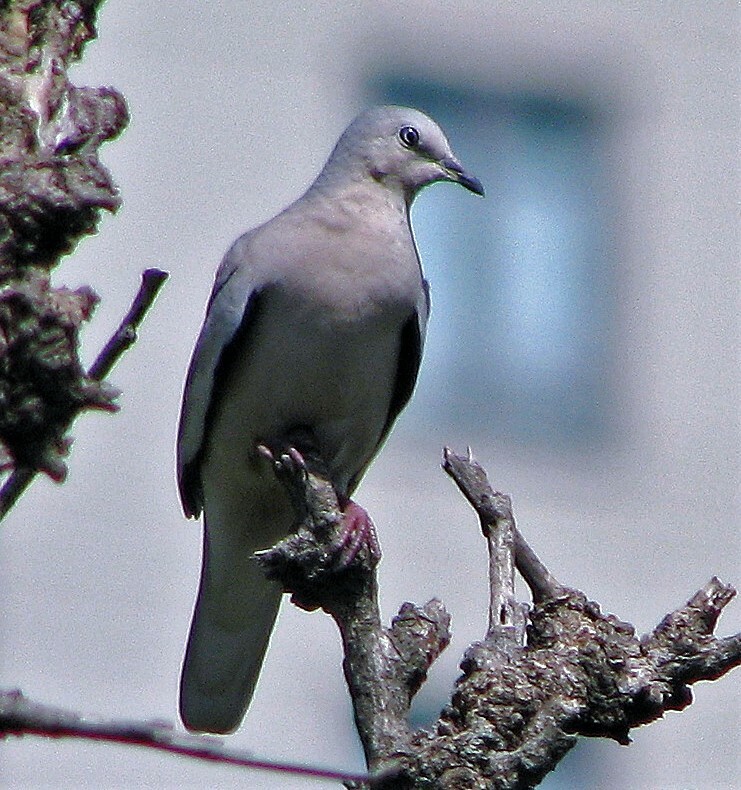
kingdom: Animalia
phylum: Chordata
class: Aves
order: Columbiformes
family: Columbidae
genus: Columbina
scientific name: Columbina picui
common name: Picui ground dove
